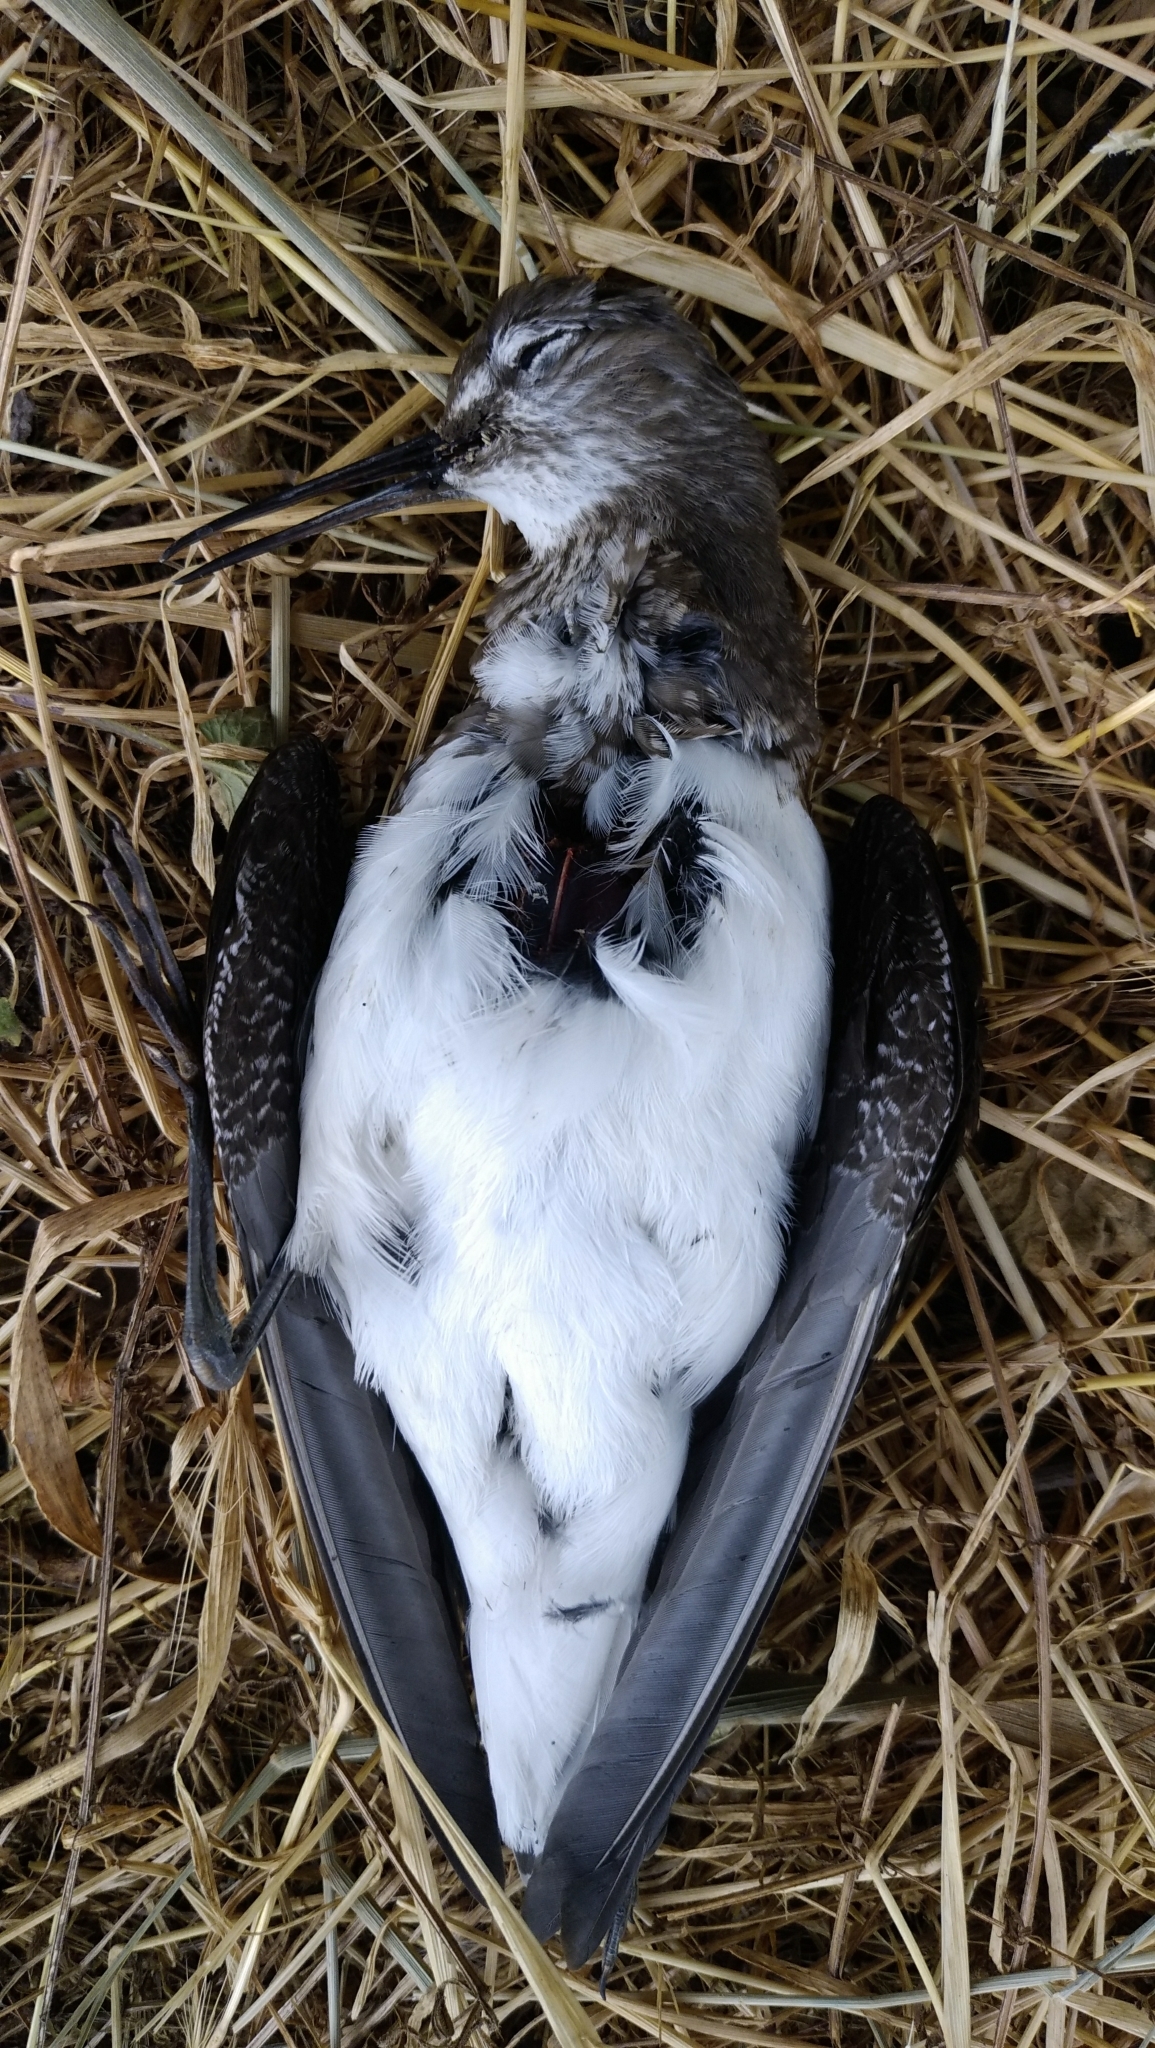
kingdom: Animalia
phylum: Chordata
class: Aves
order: Charadriiformes
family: Scolopacidae
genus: Tringa
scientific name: Tringa ochropus
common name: Green sandpiper
